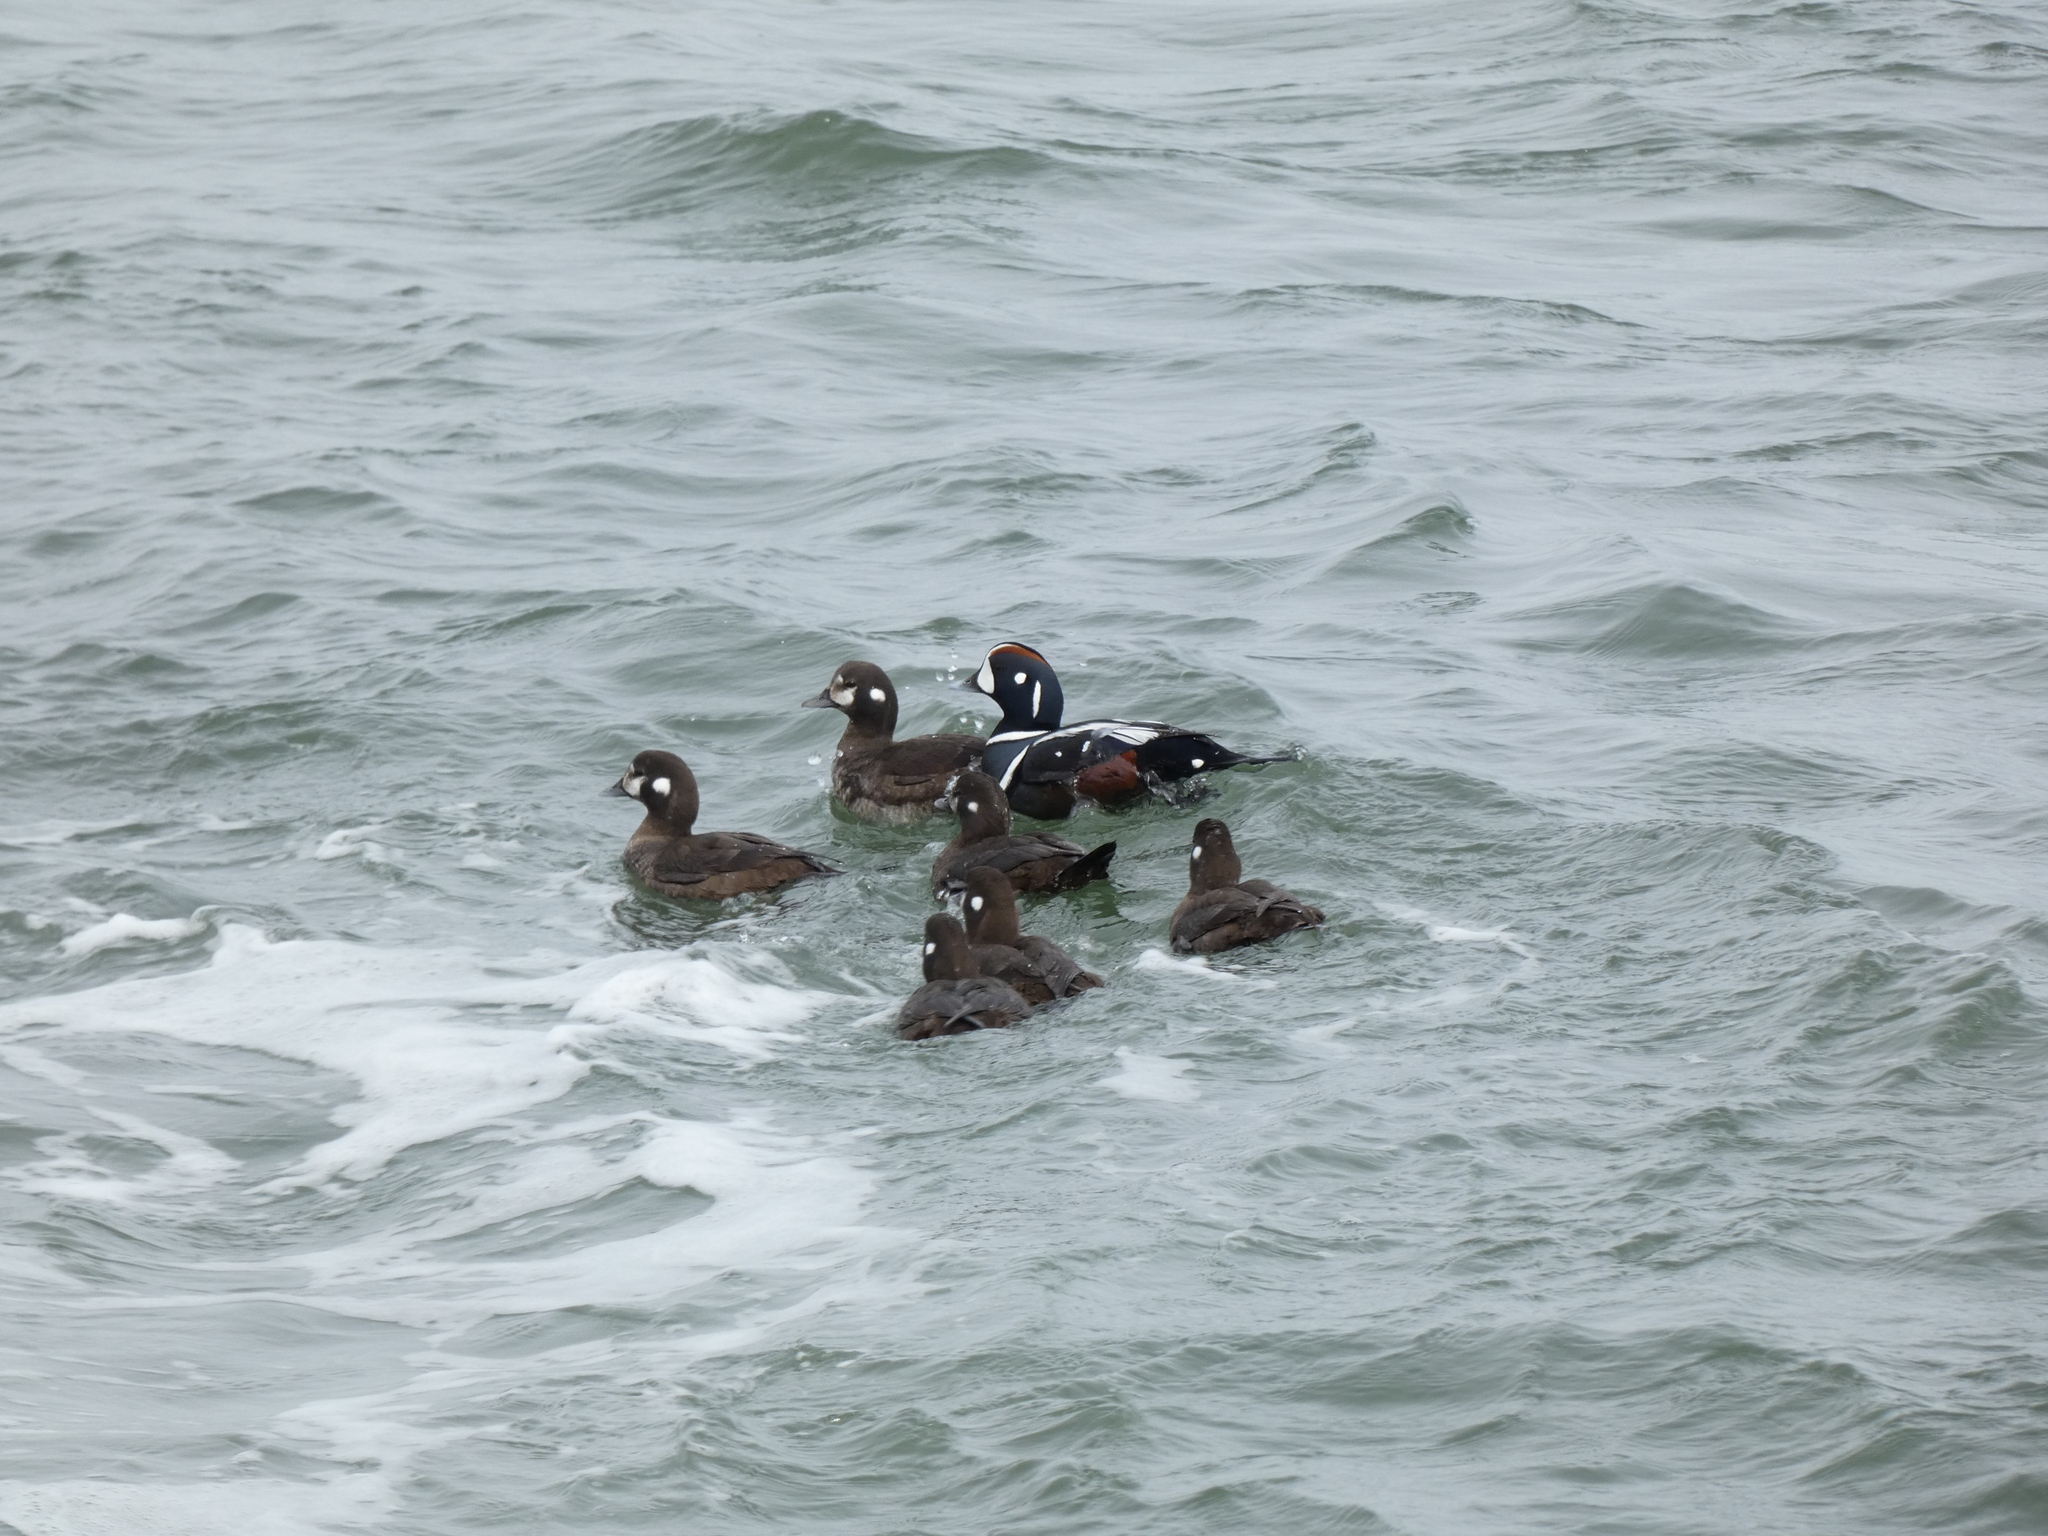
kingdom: Animalia
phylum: Chordata
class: Aves
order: Anseriformes
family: Anatidae
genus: Histrionicus
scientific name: Histrionicus histrionicus
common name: Harlequin duck
